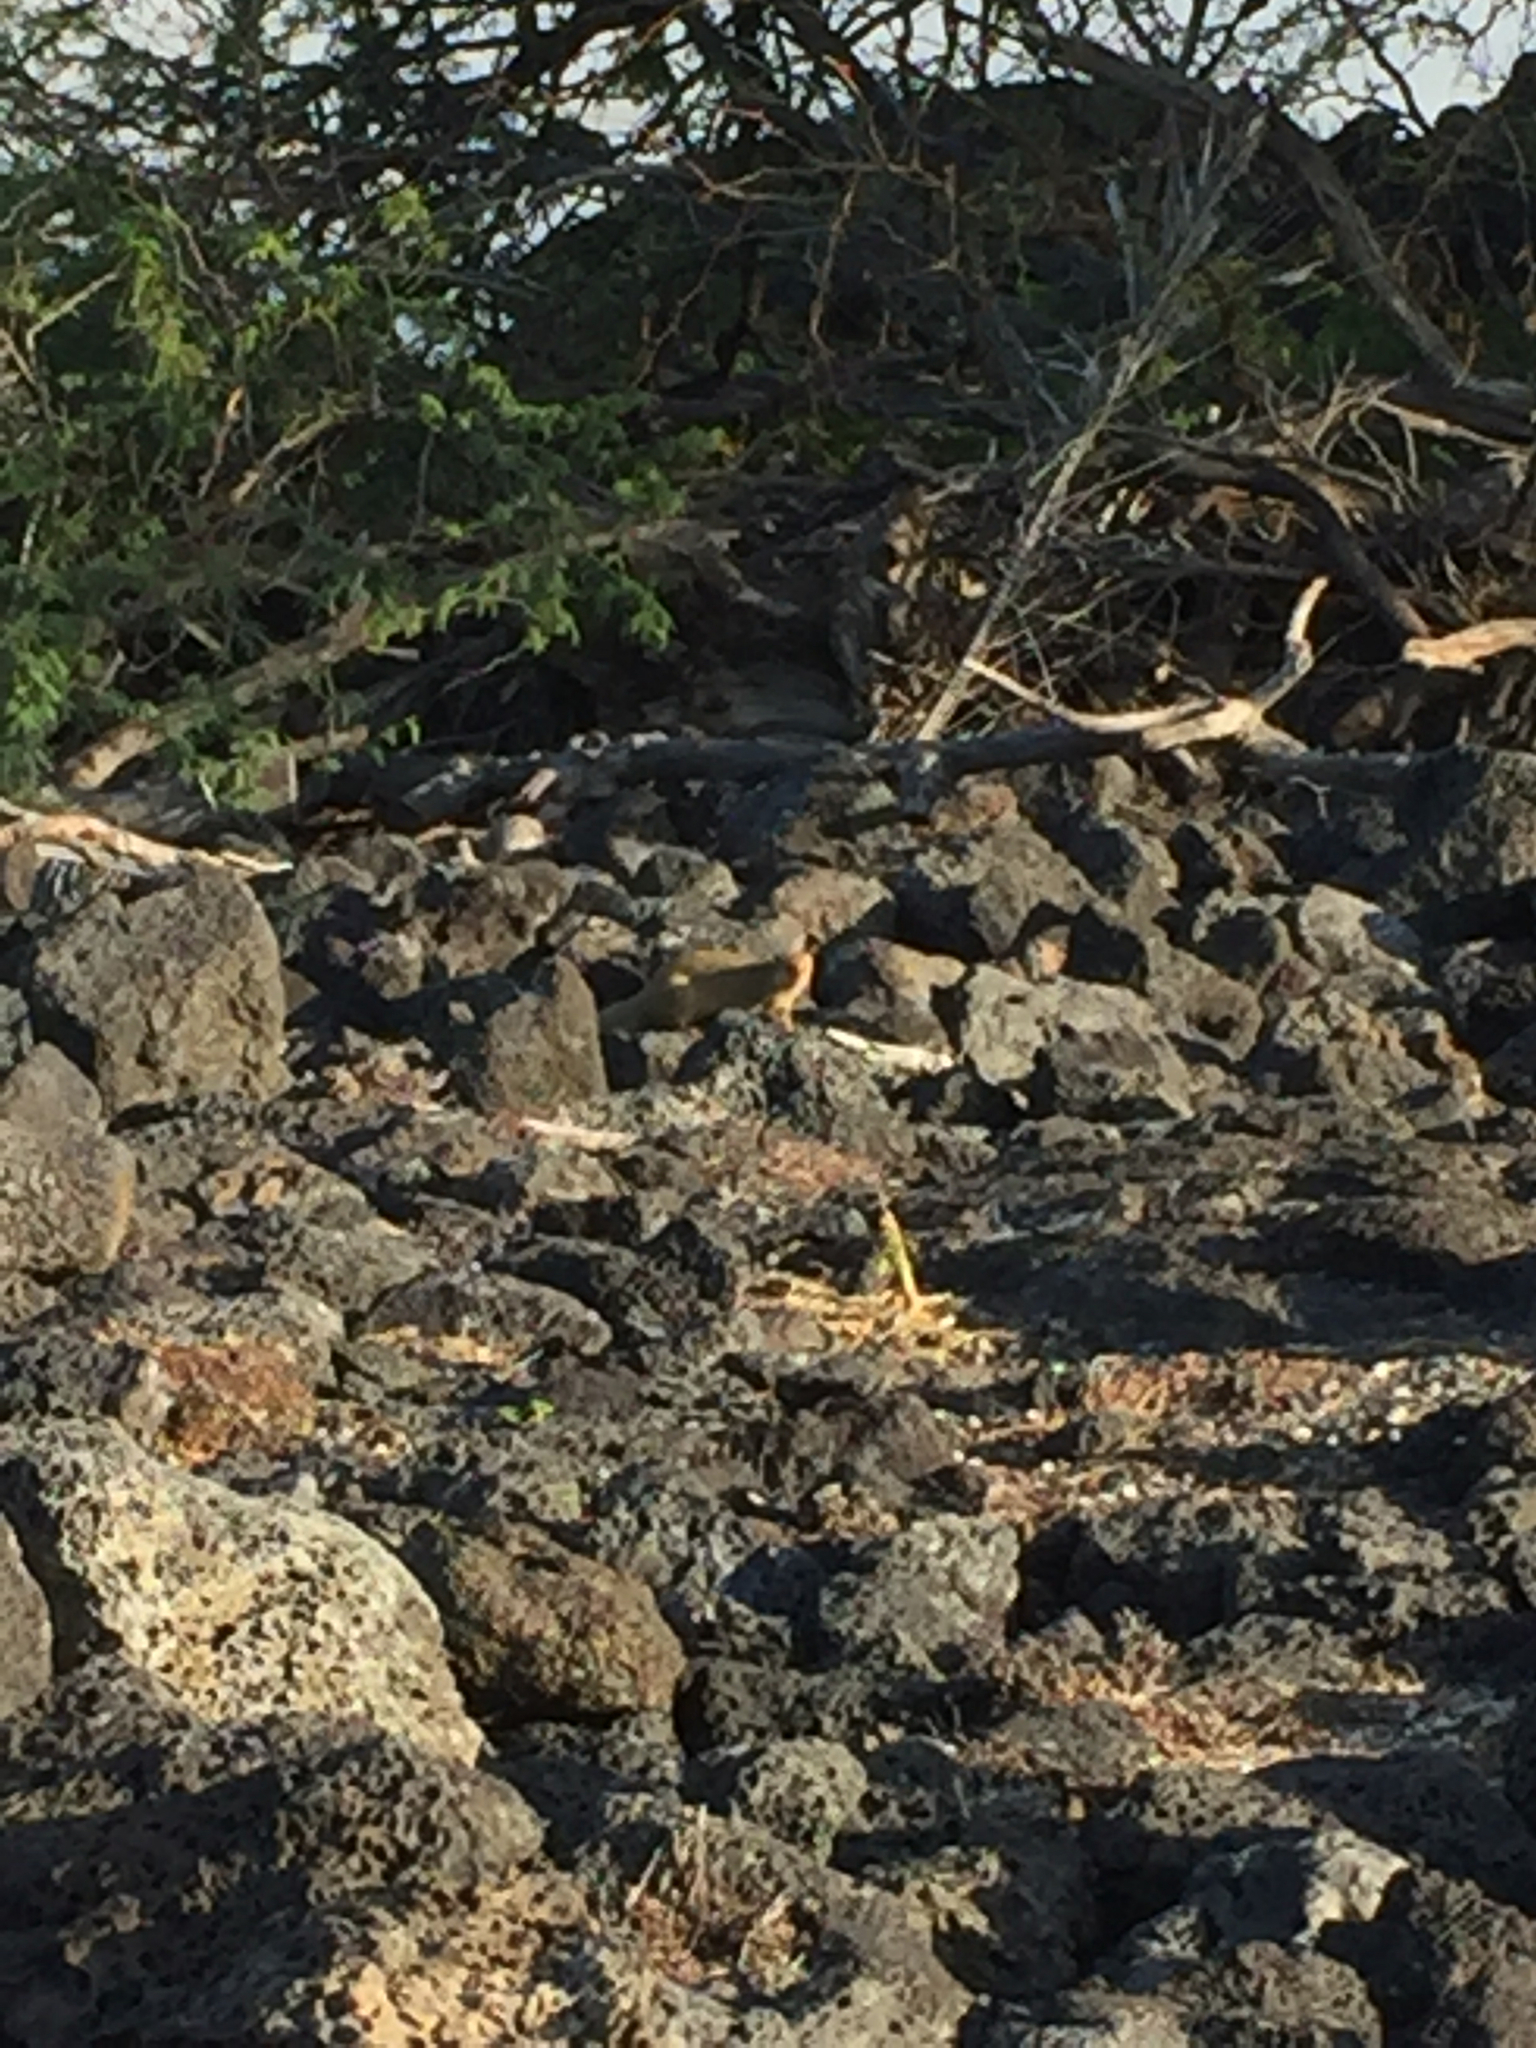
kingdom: Animalia
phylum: Chordata
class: Mammalia
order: Carnivora
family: Herpestidae
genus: Herpestes
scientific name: Herpestes javanicus
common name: Small asian mongoose
